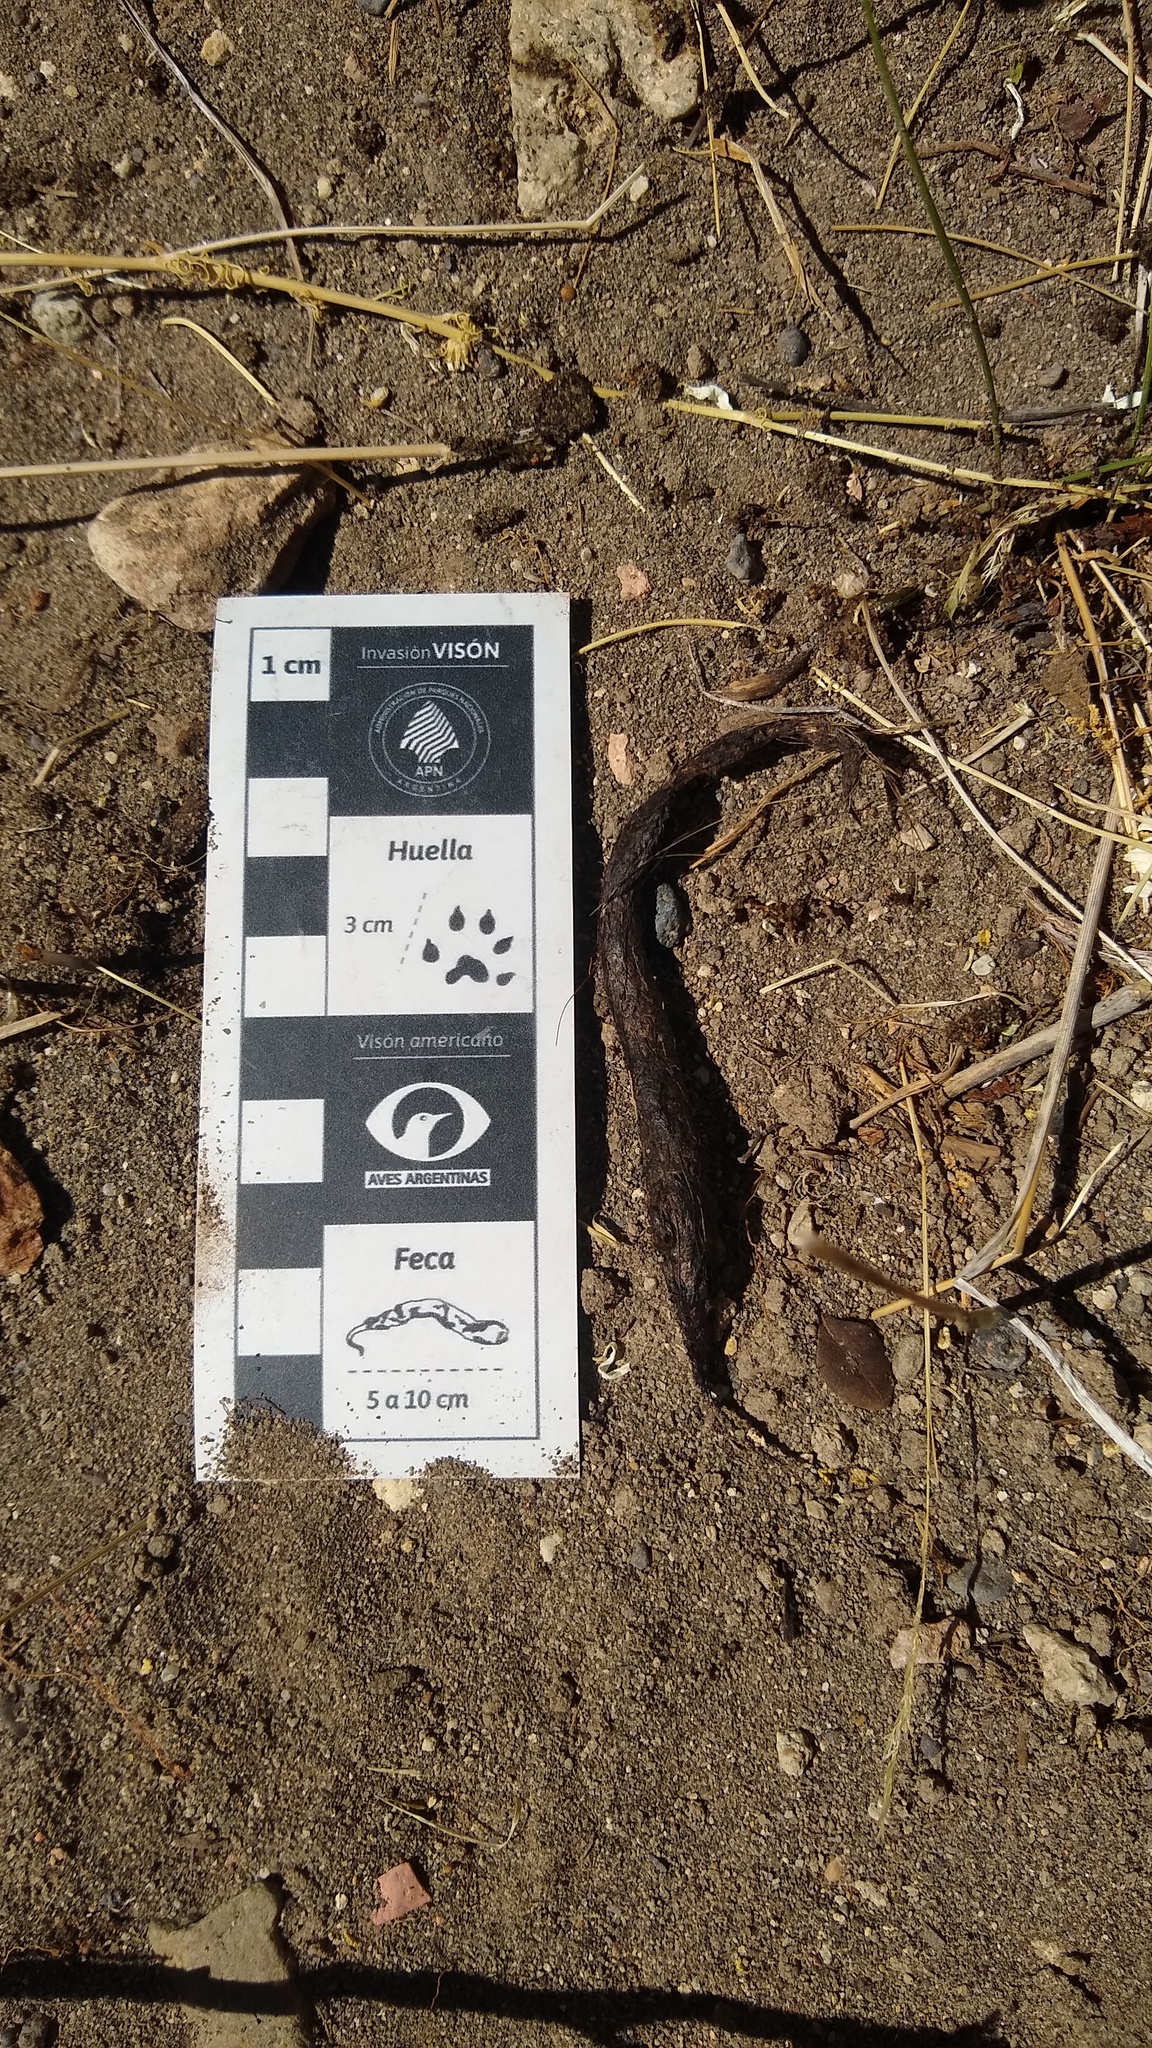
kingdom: Animalia
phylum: Chordata
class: Mammalia
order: Carnivora
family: Mustelidae
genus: Mustela
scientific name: Mustela
